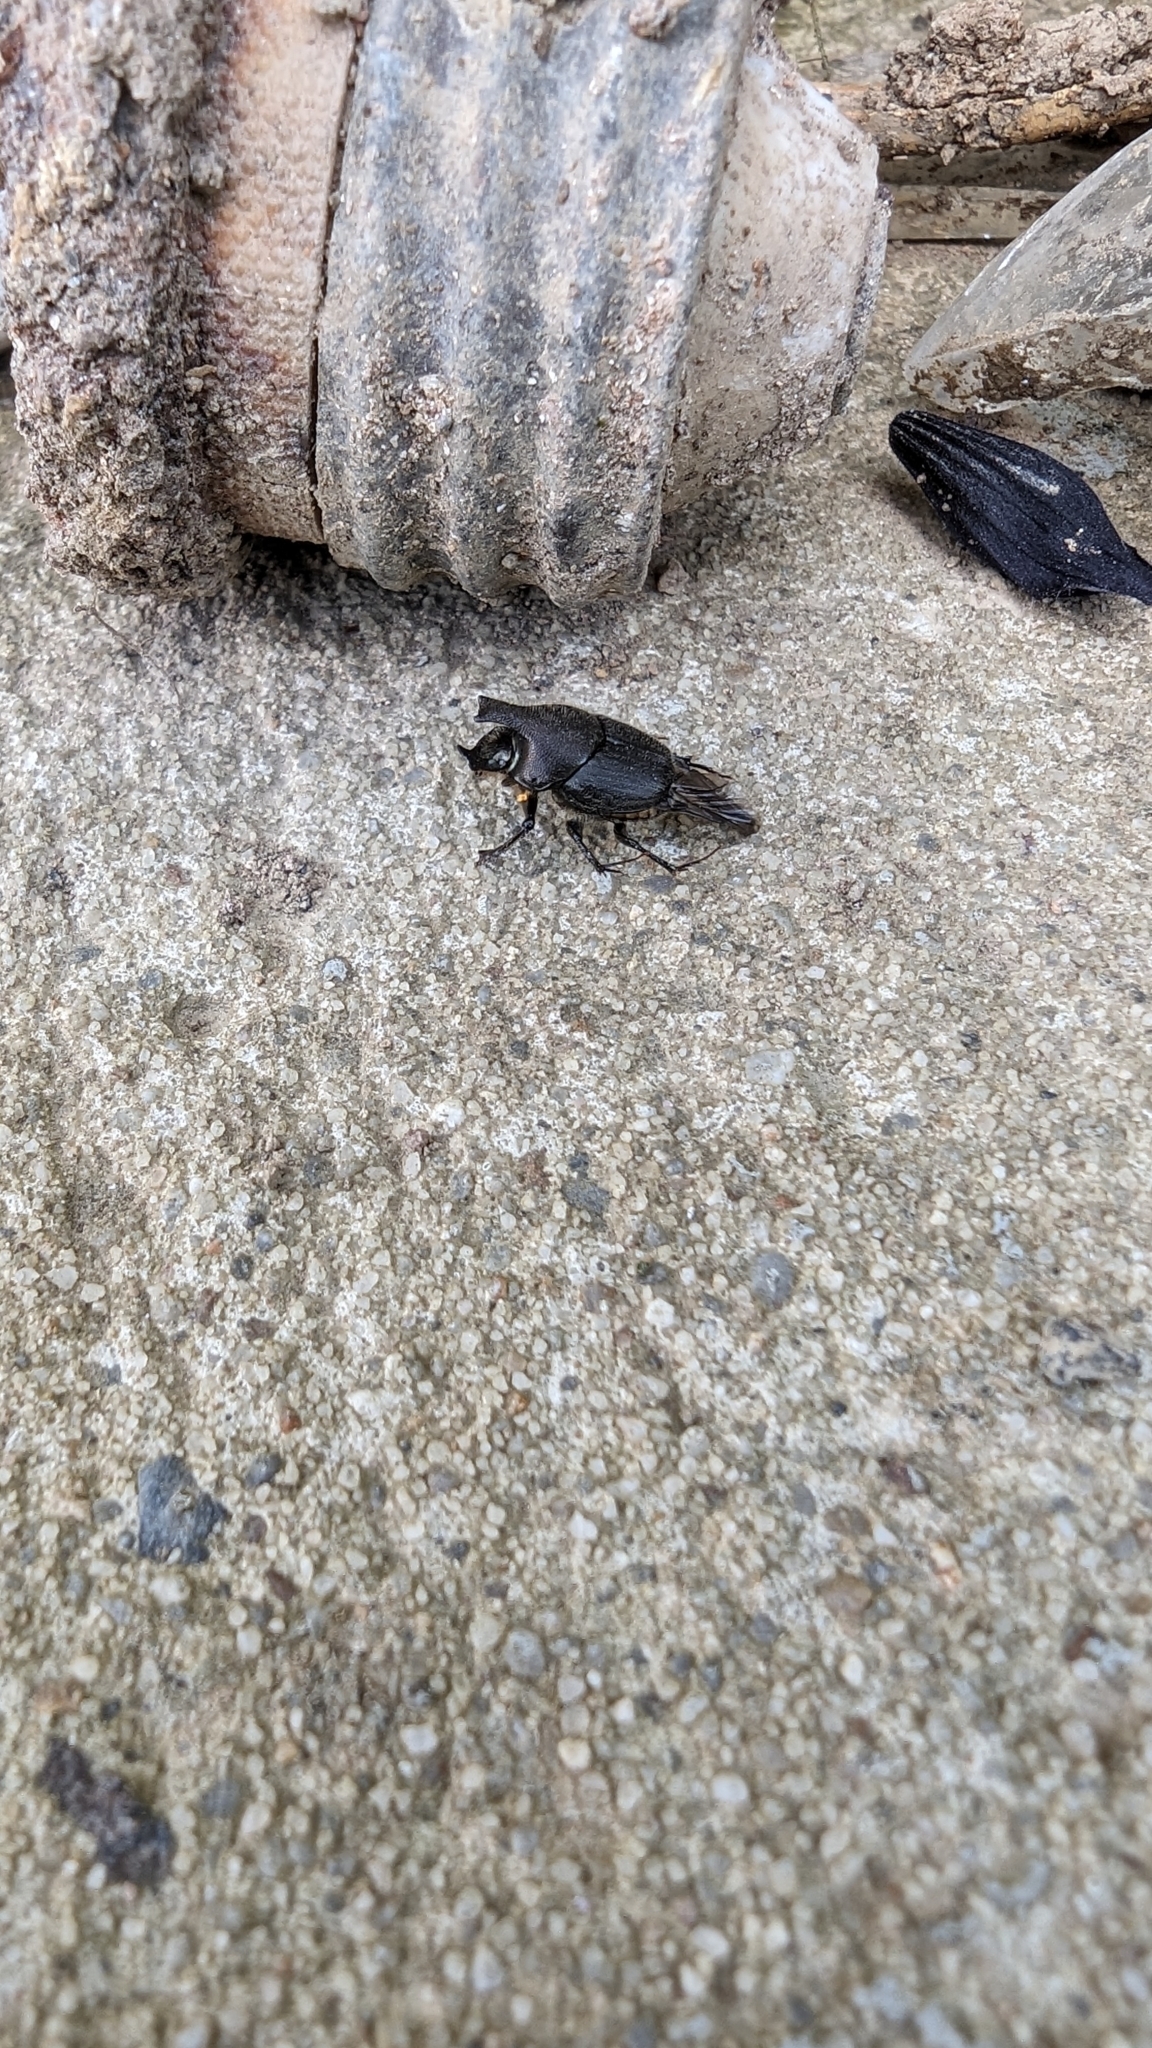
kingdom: Animalia
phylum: Arthropoda
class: Insecta
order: Coleoptera
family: Scarabaeidae
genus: Onthophagus
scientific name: Onthophagus hecate
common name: Scooped scarab
